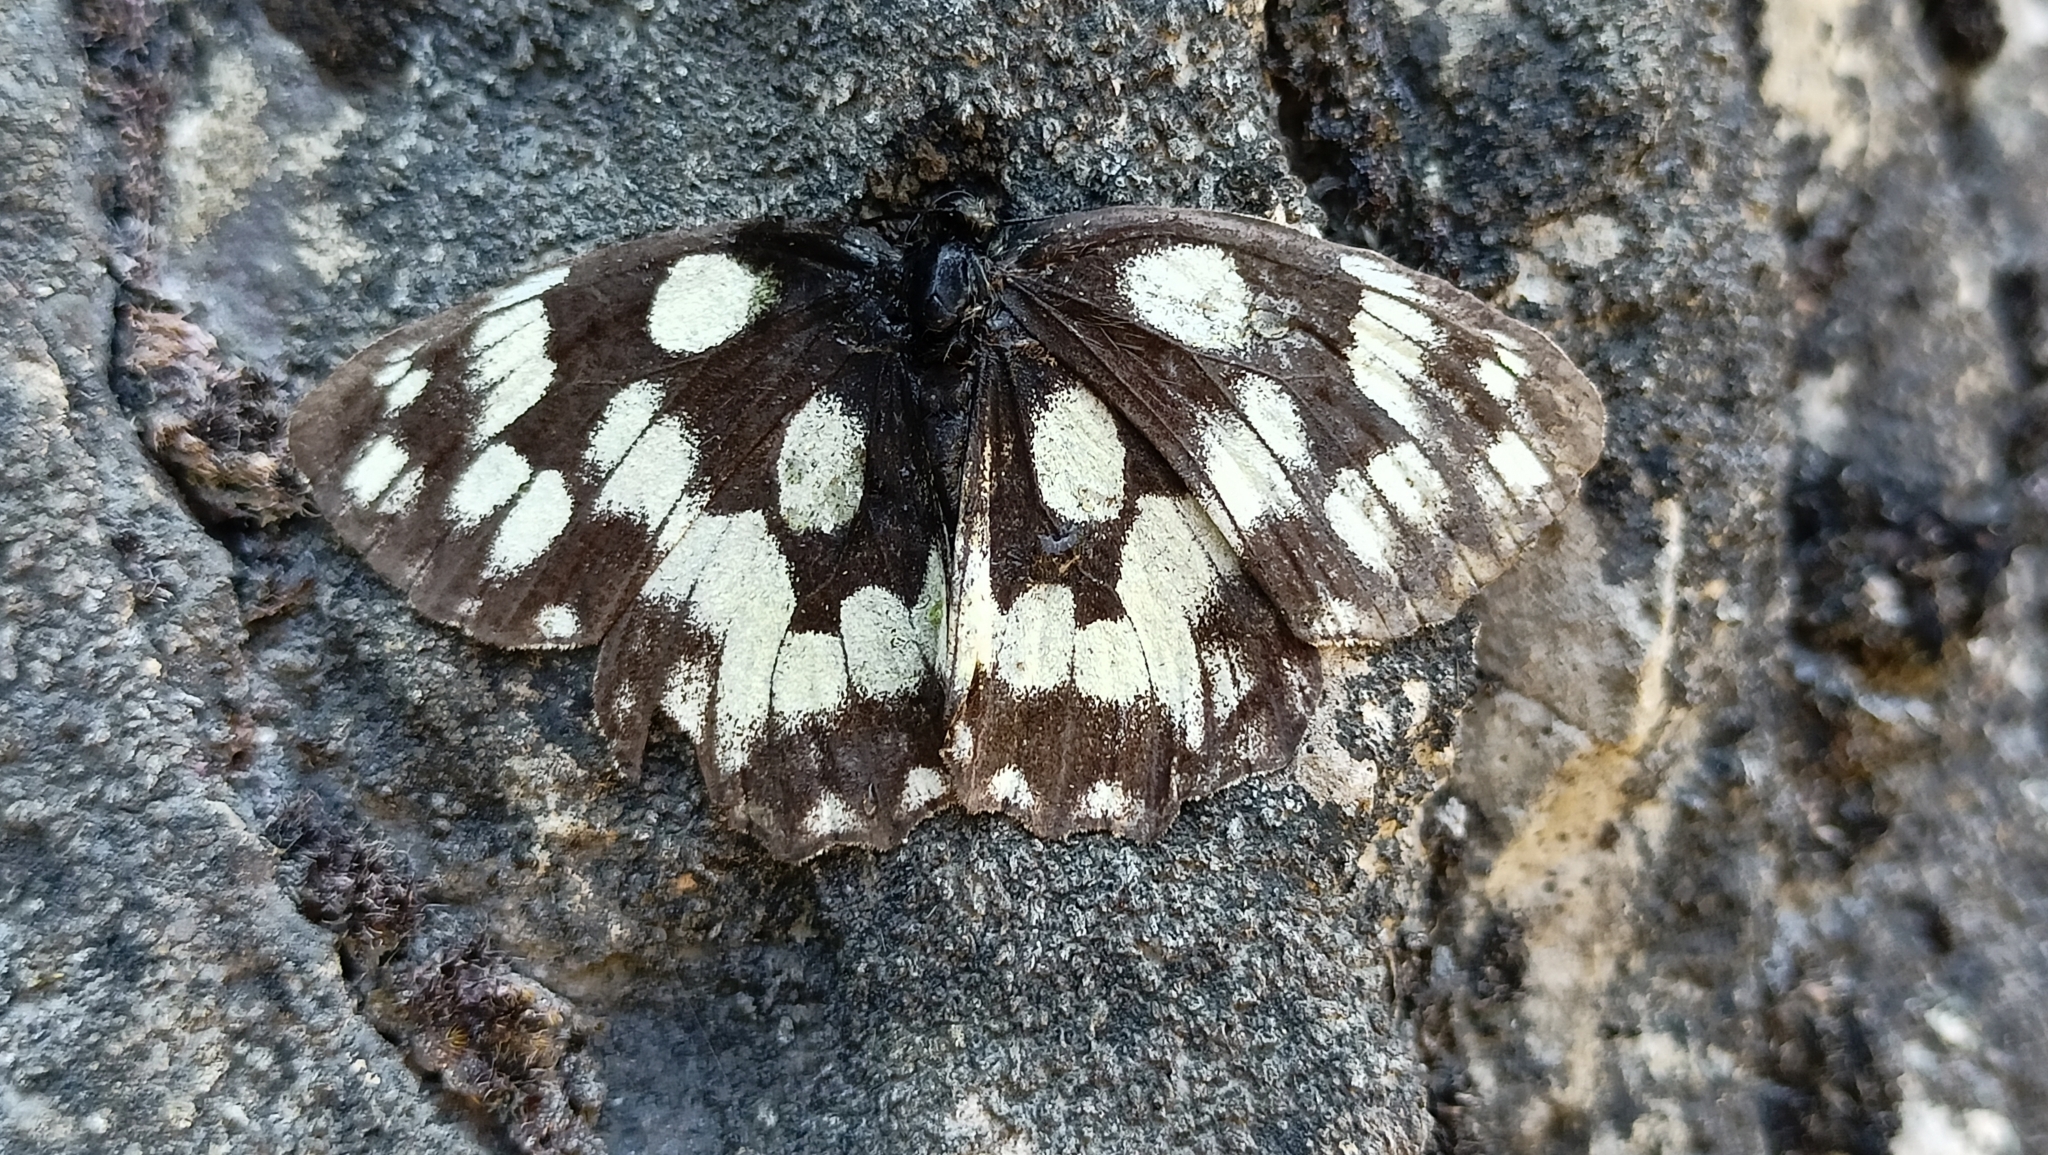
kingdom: Animalia
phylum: Arthropoda
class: Insecta
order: Lepidoptera
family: Nymphalidae
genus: Melanargia
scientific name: Melanargia galathea
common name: Marbled white
